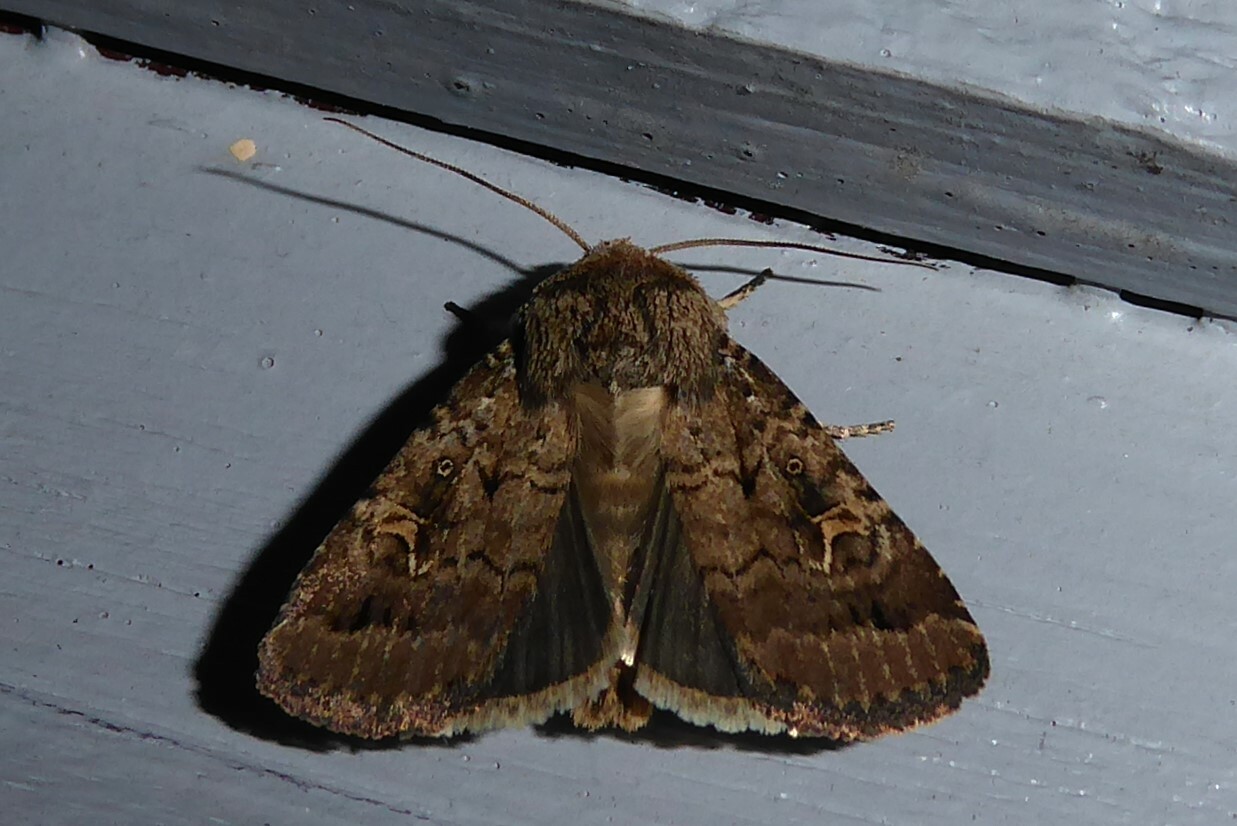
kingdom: Animalia
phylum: Arthropoda
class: Insecta
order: Lepidoptera
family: Noctuidae
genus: Proteuxoa
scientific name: Proteuxoa tetronycha
